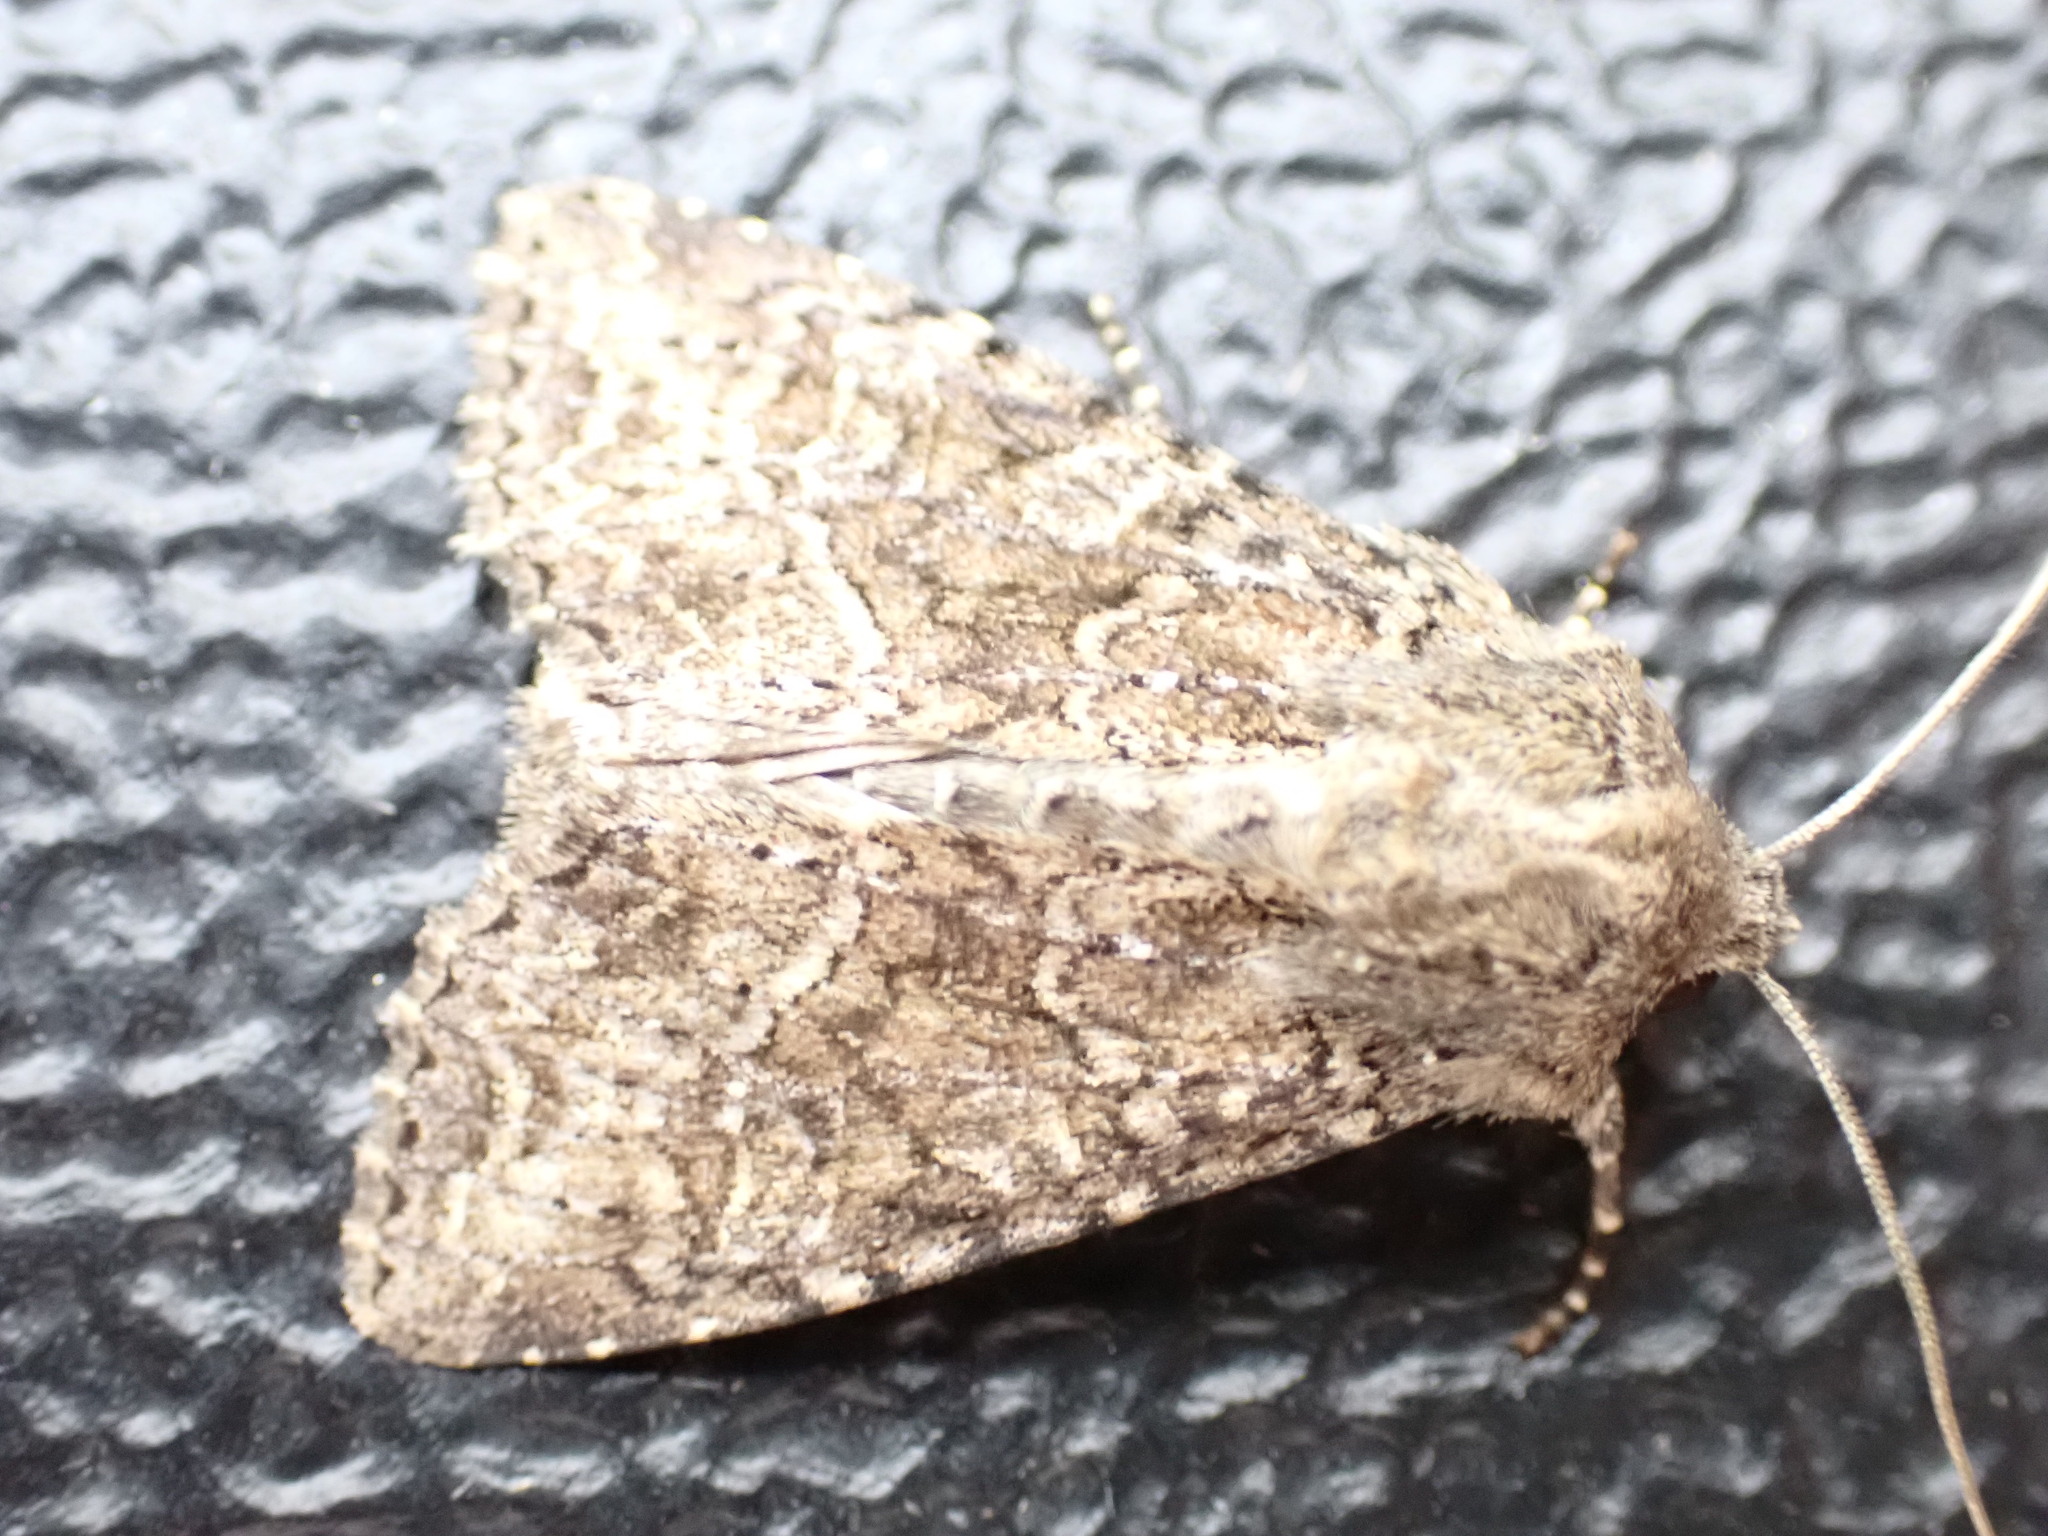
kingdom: Animalia
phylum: Arthropoda
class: Insecta
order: Lepidoptera
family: Noctuidae
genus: Apamea
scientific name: Apamea remissa
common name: Dusky brocade
